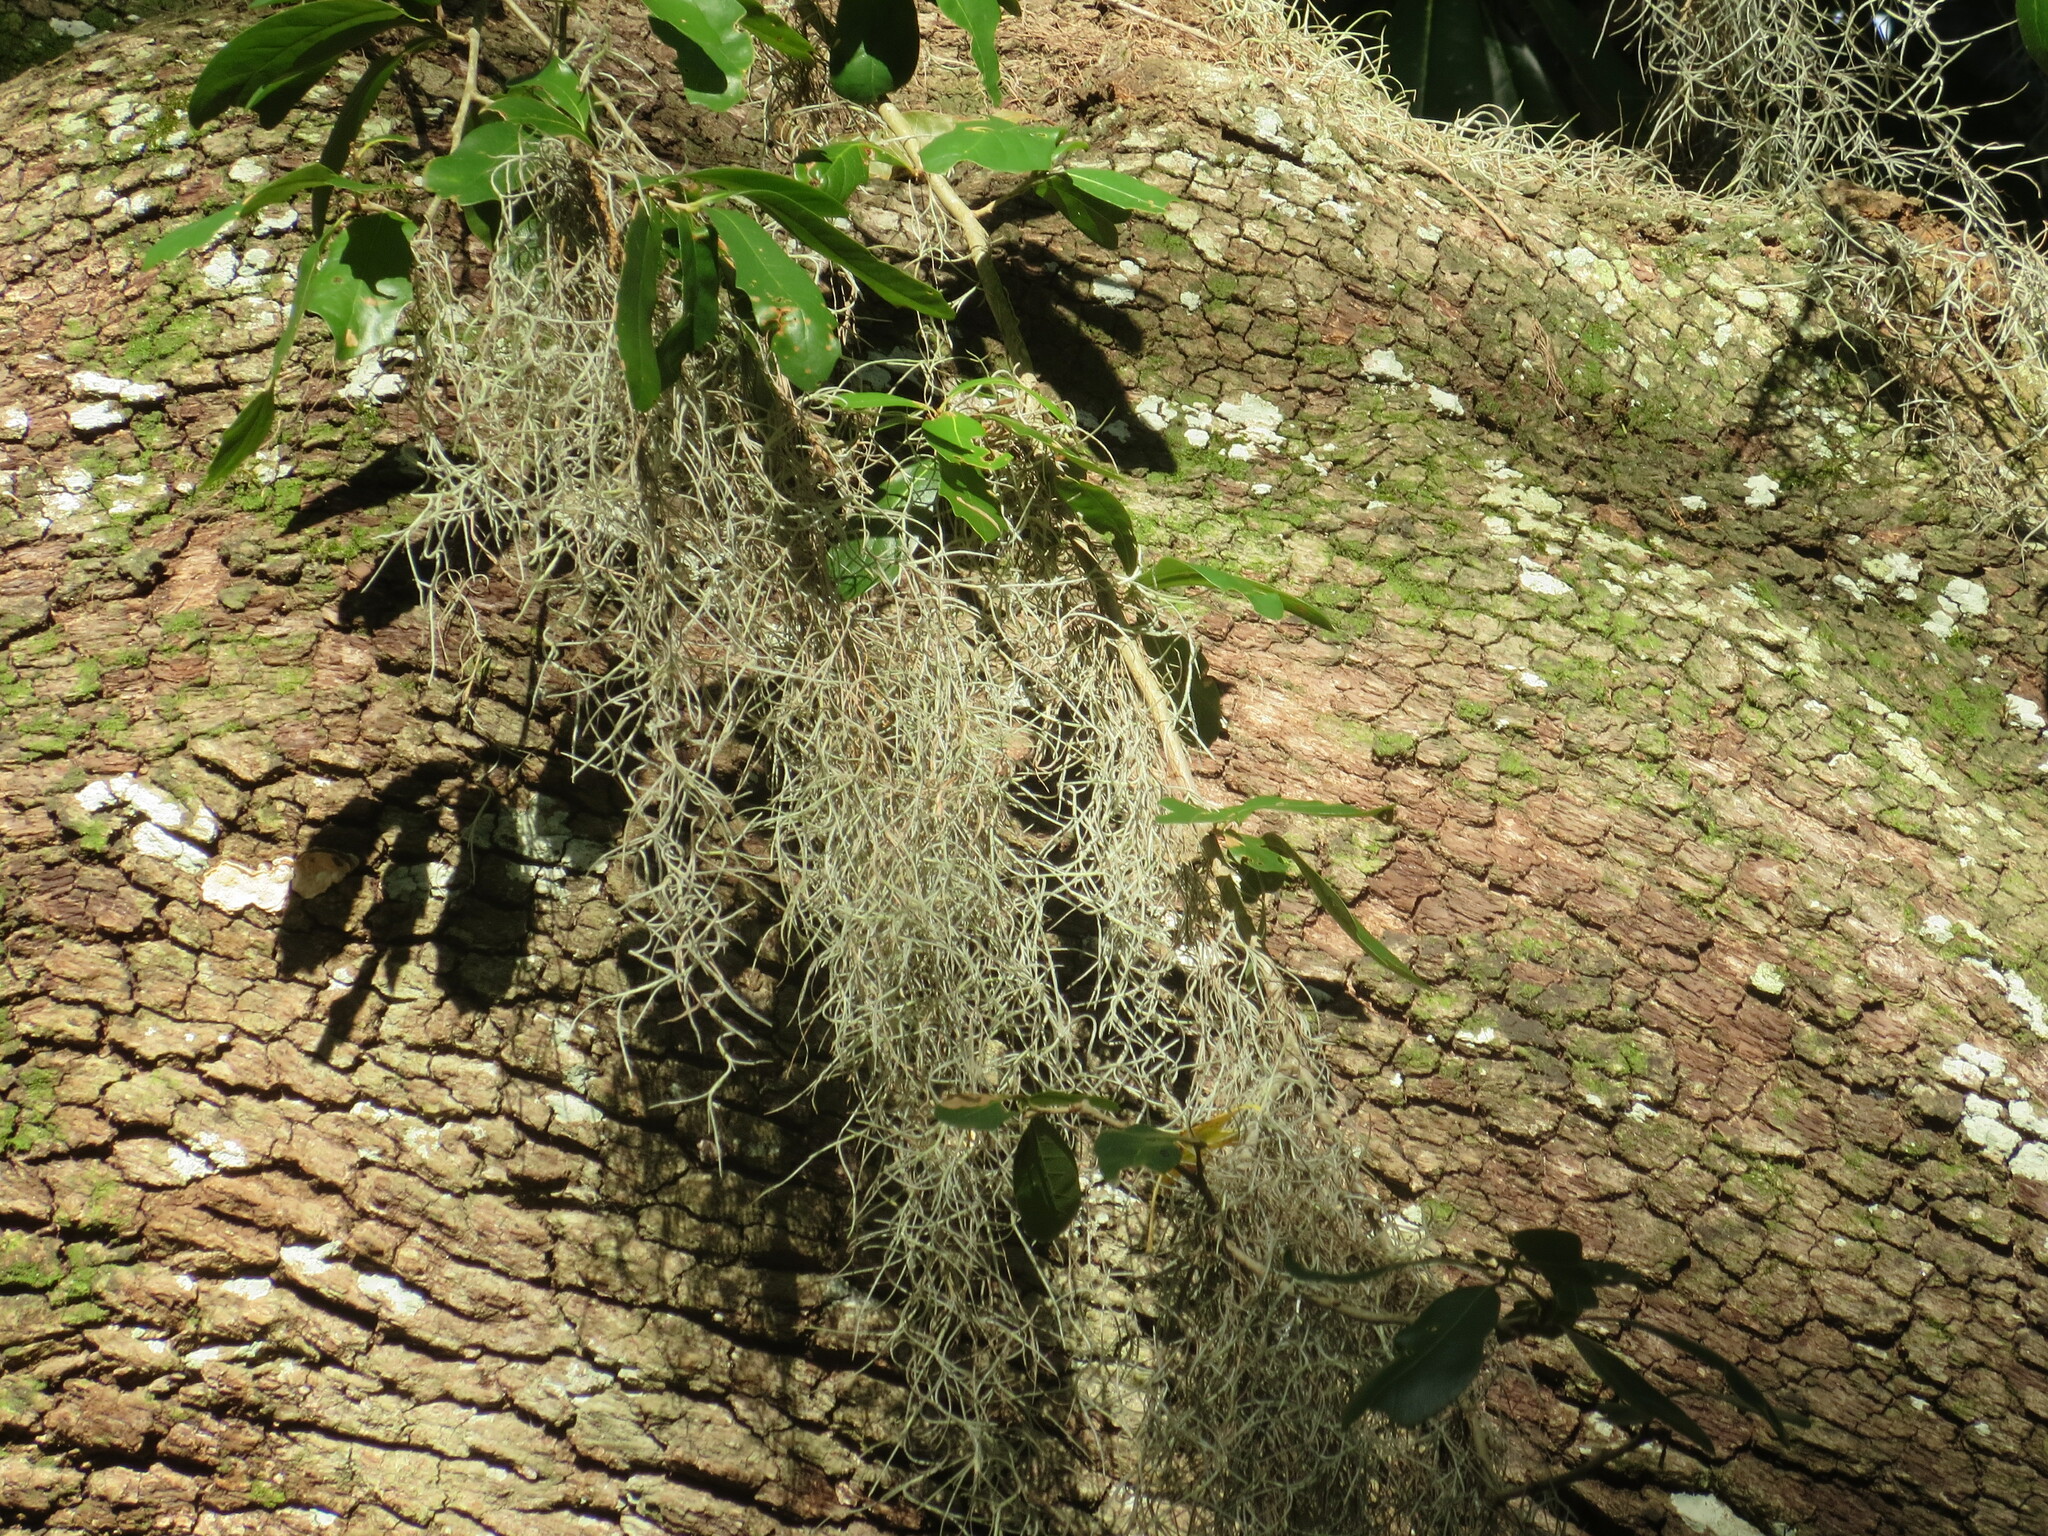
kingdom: Plantae
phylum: Tracheophyta
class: Liliopsida
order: Poales
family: Bromeliaceae
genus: Tillandsia
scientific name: Tillandsia usneoides
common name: Spanish moss
